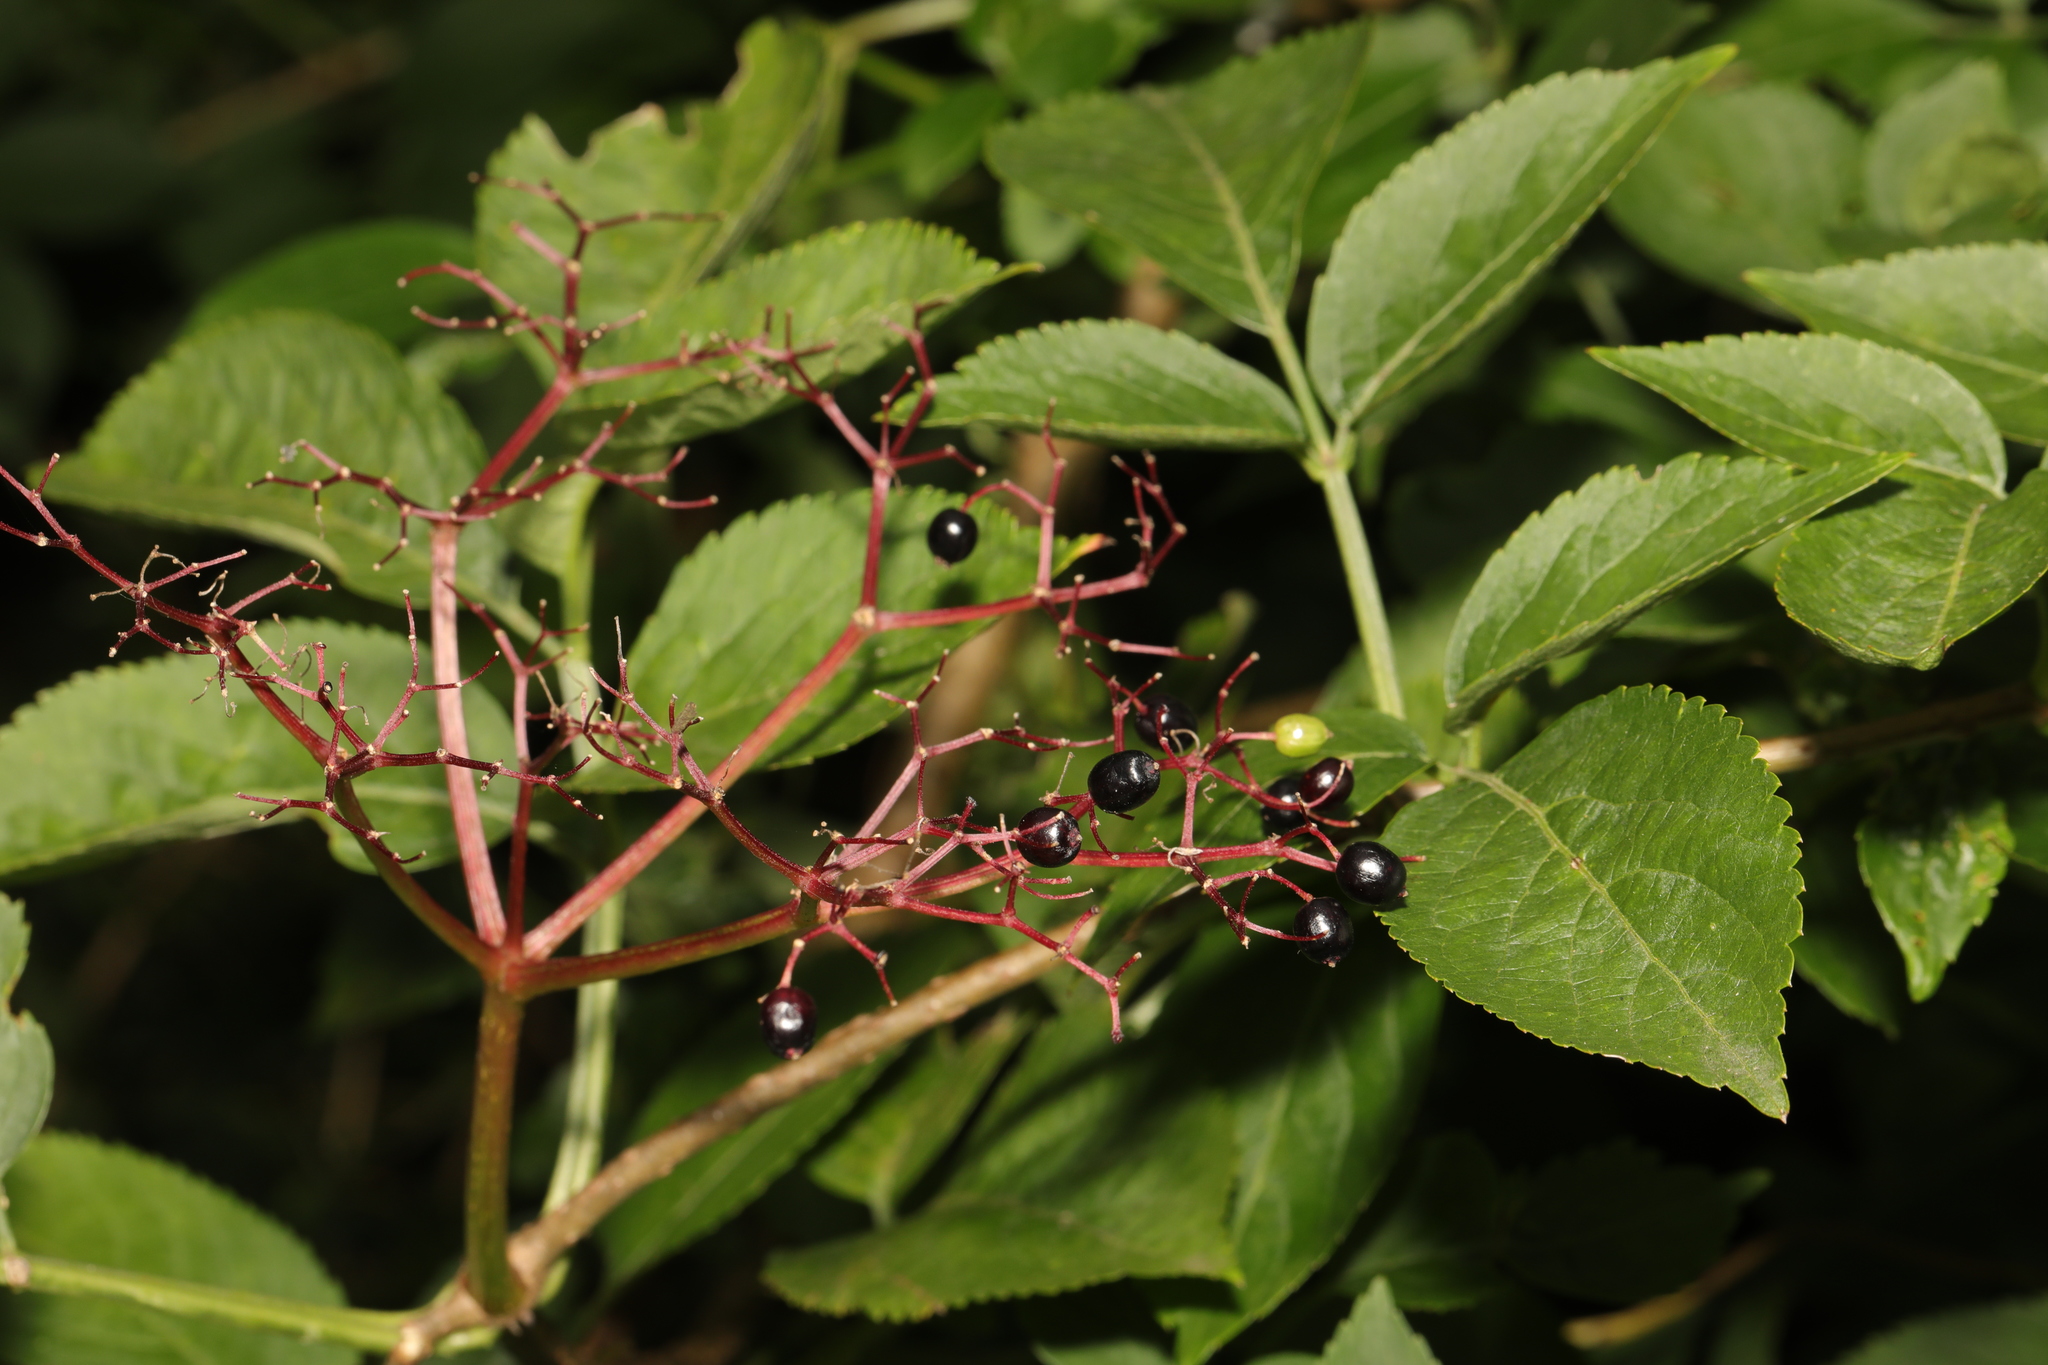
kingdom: Plantae
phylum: Tracheophyta
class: Magnoliopsida
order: Dipsacales
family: Viburnaceae
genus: Sambucus
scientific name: Sambucus nigra
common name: Elder
